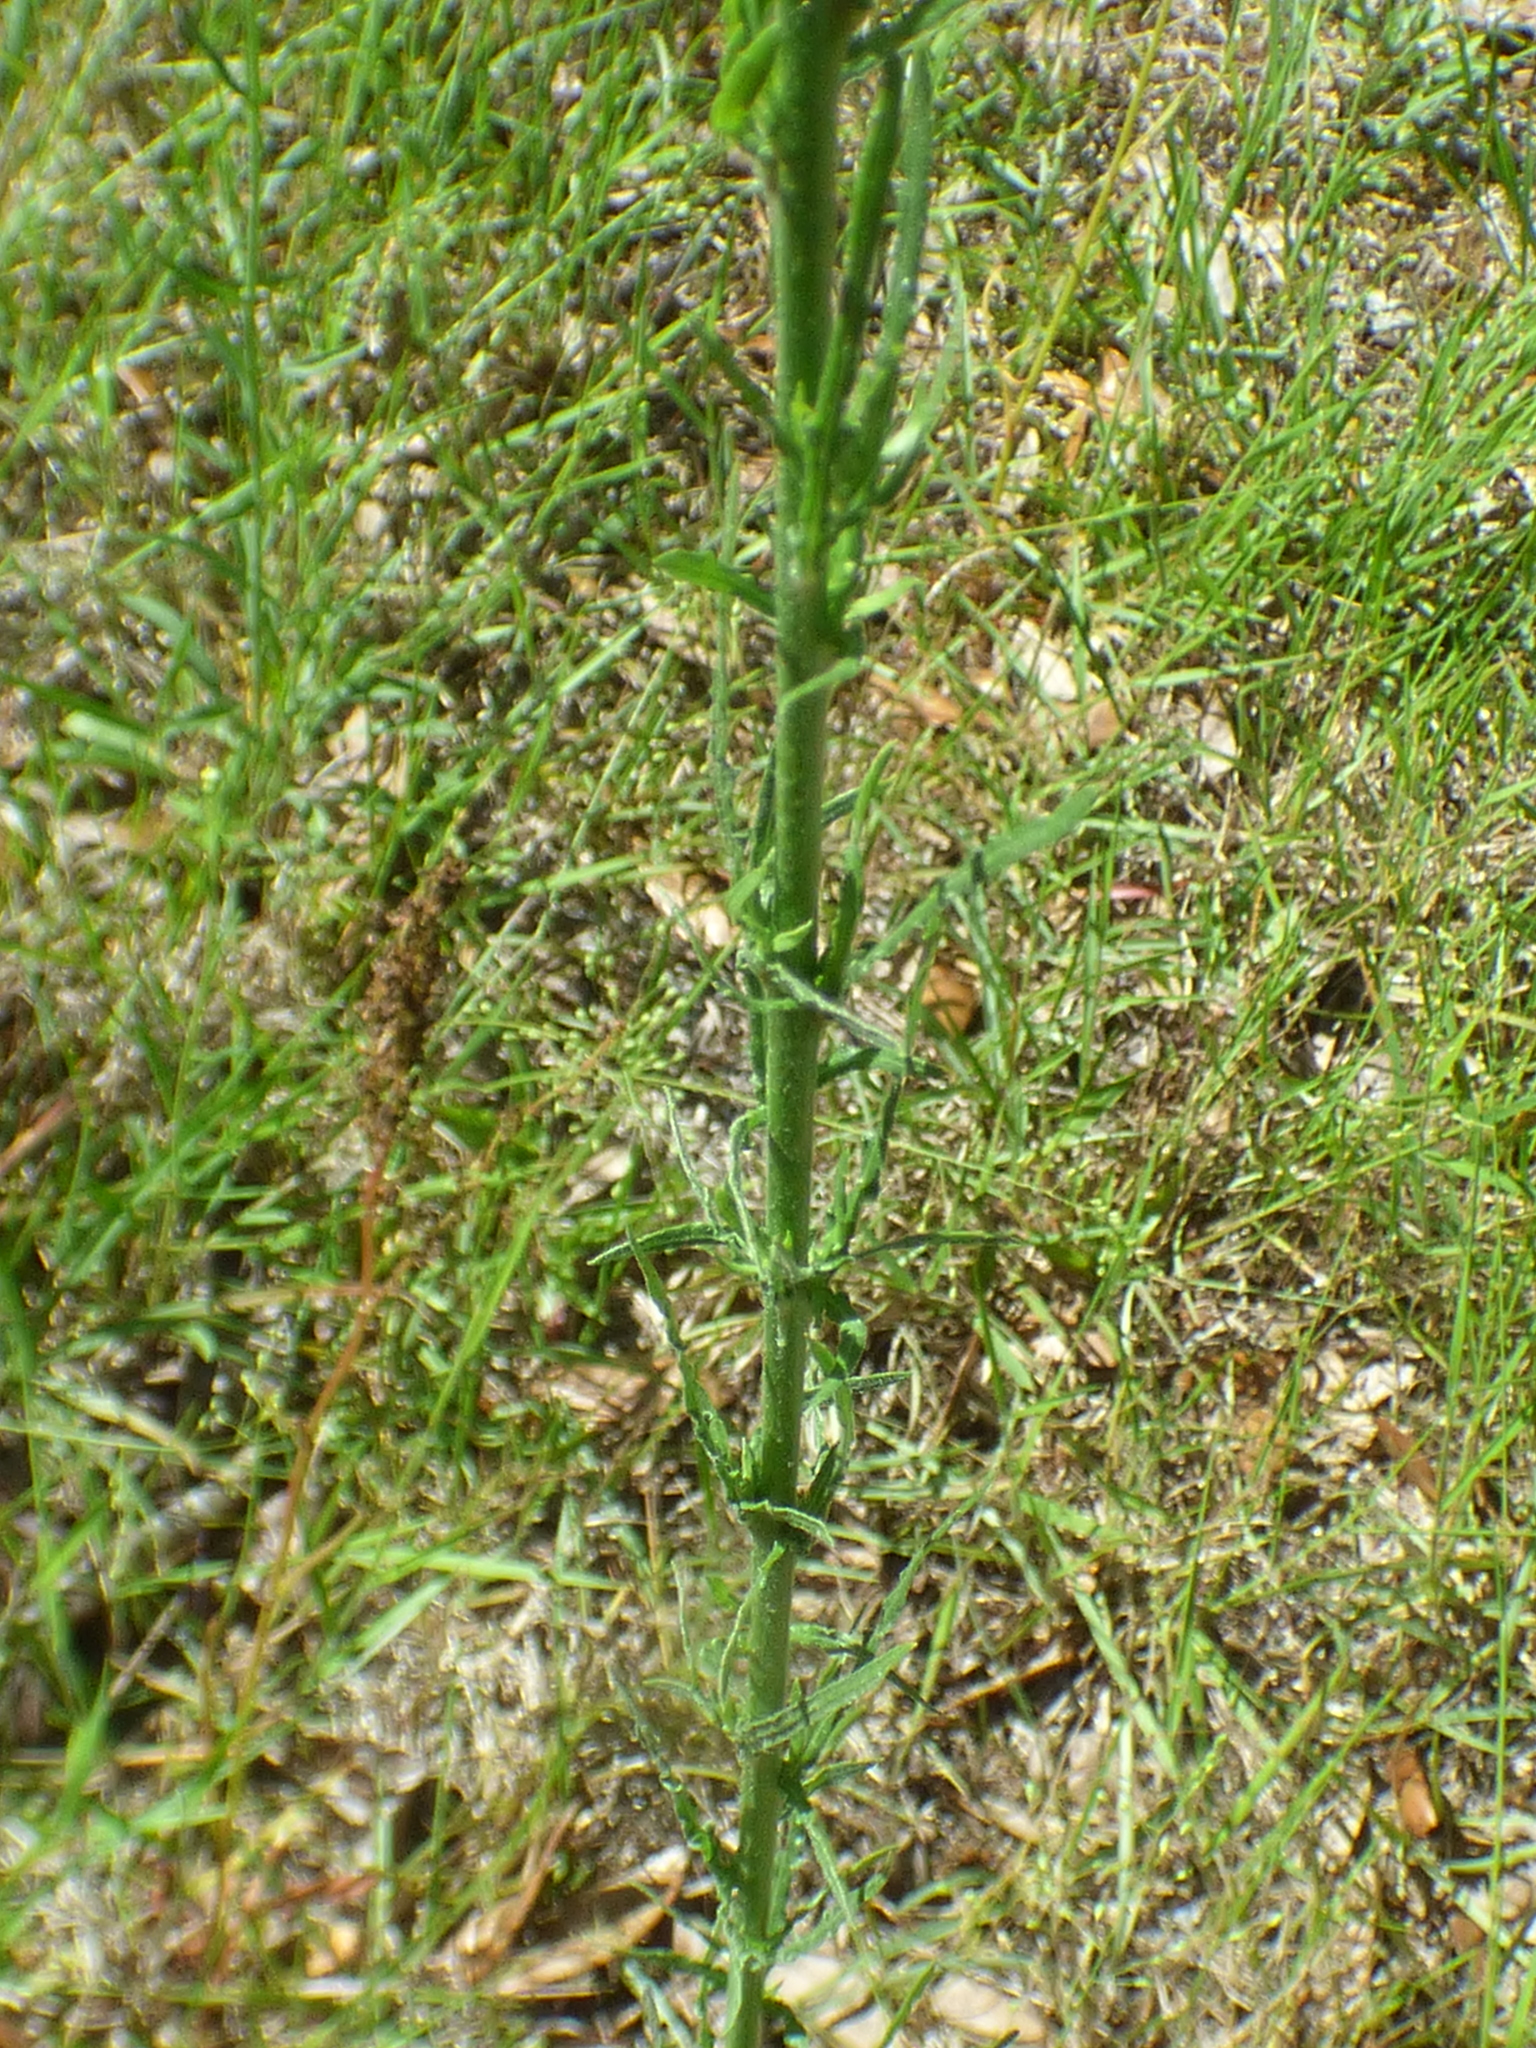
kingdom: Plantae
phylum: Tracheophyta
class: Magnoliopsida
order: Myrtales
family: Onagraceae
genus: Oenothera
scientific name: Oenothera simulans
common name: Southern beeblossom
